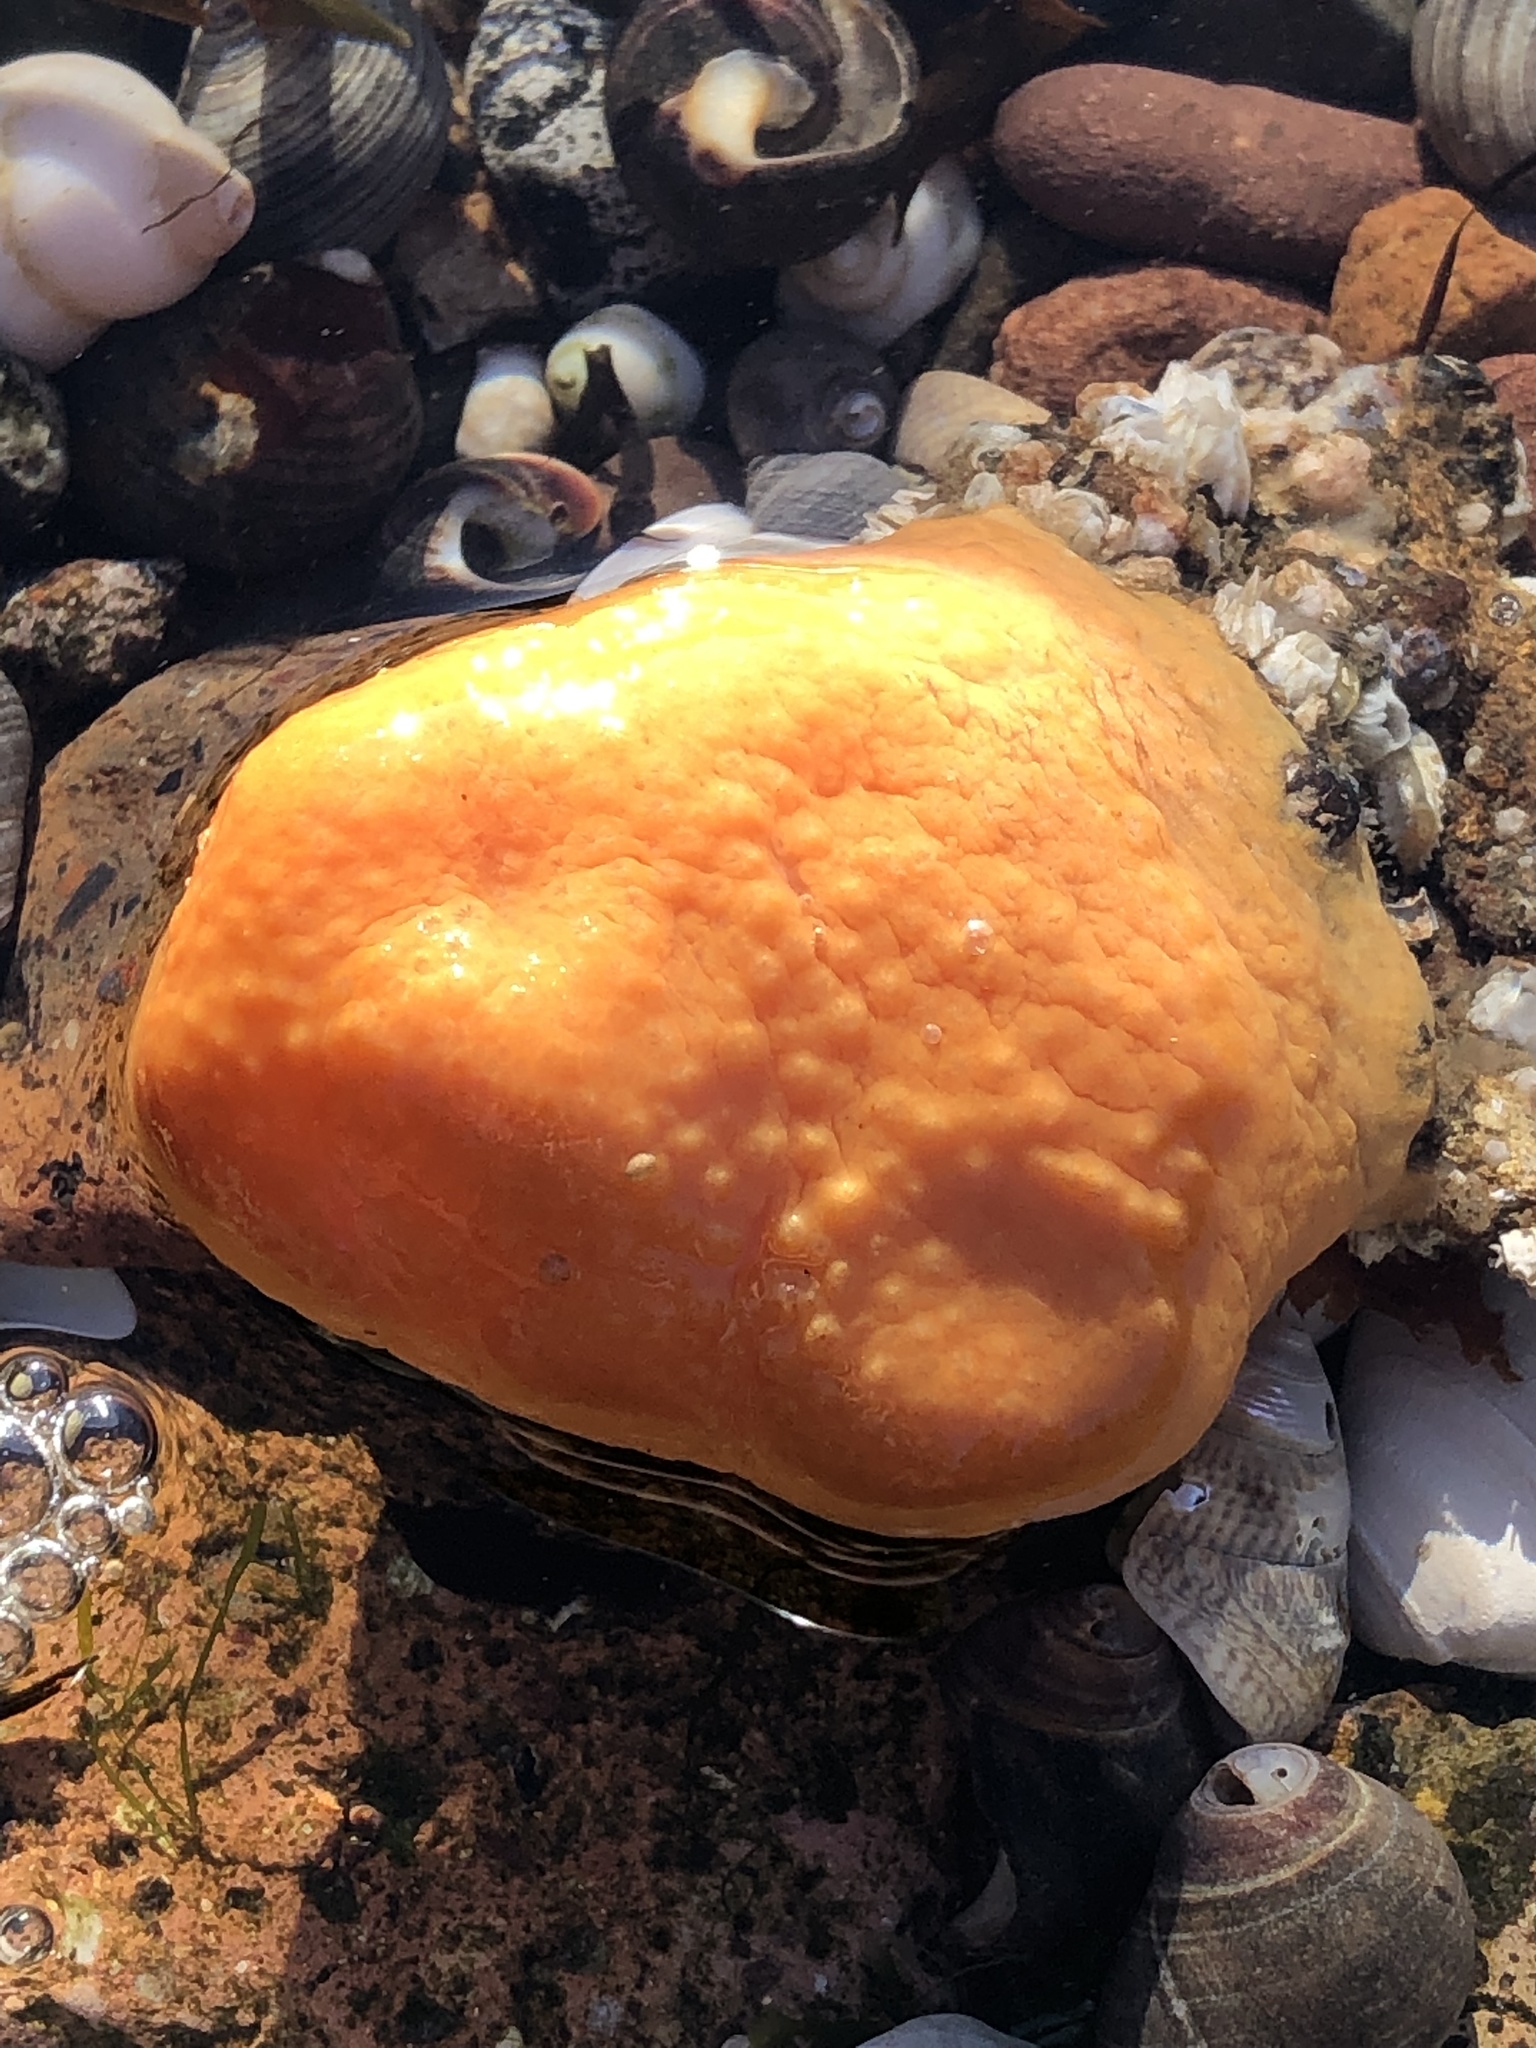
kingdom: Animalia
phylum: Cnidaria
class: Anthozoa
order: Malacalcyonacea
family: Alcyoniidae
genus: Alcyonium
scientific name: Alcyonium digitatum
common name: Dead man's fingers
